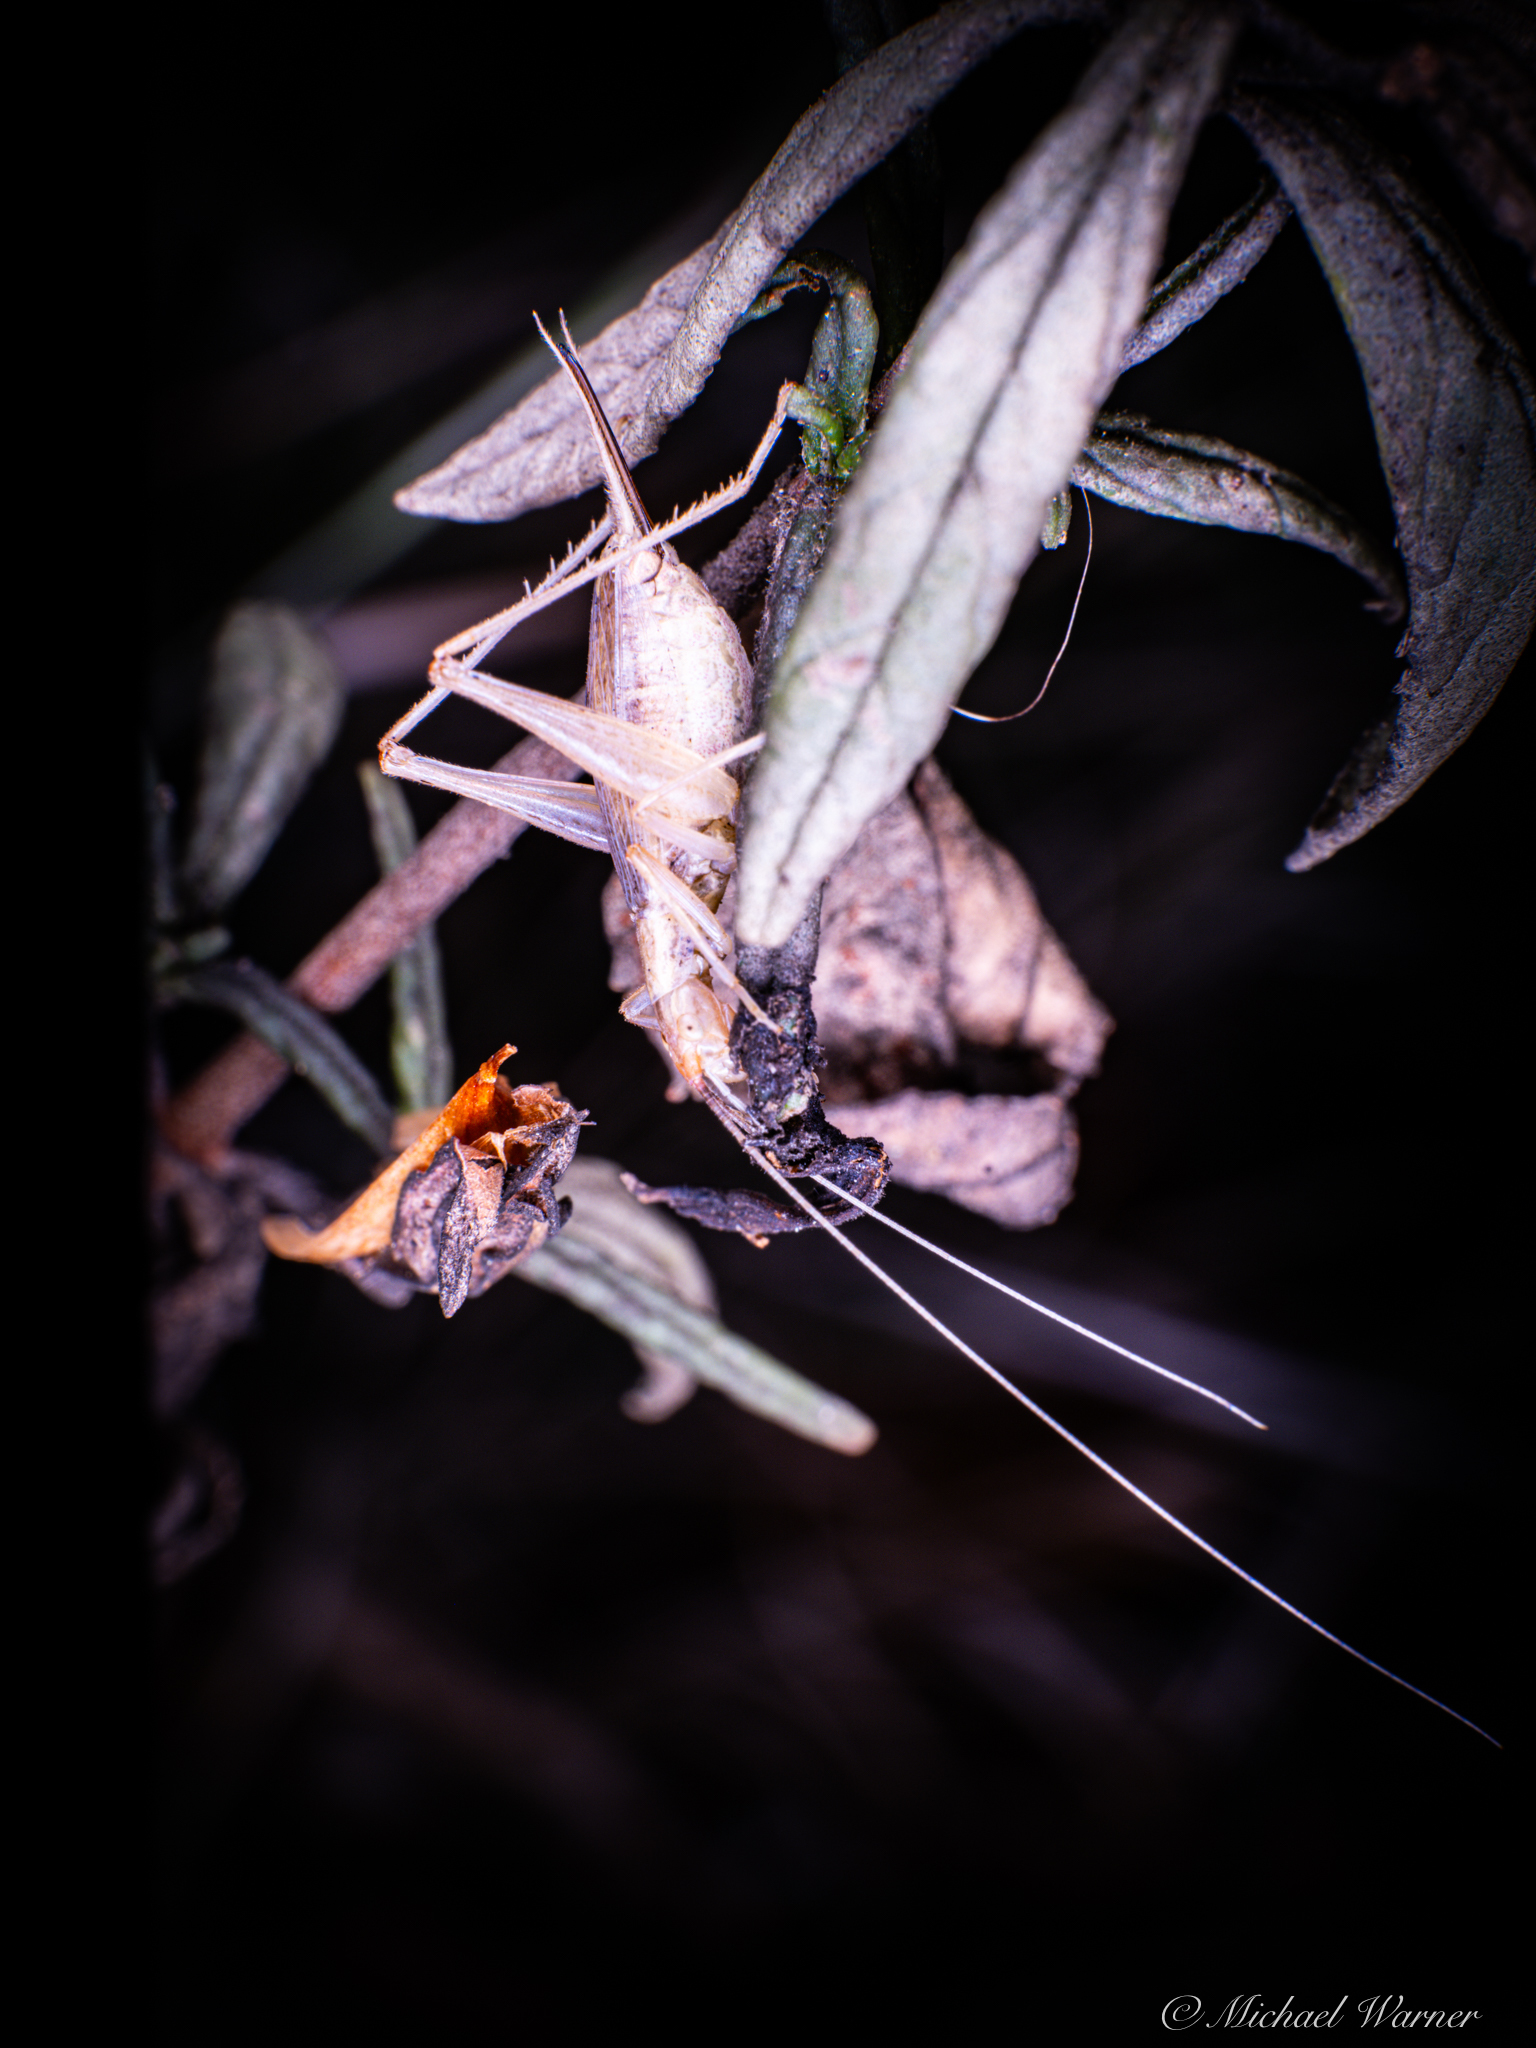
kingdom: Animalia
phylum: Arthropoda
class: Insecta
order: Orthoptera
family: Gryllidae
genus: Oecanthus
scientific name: Oecanthus californicus
